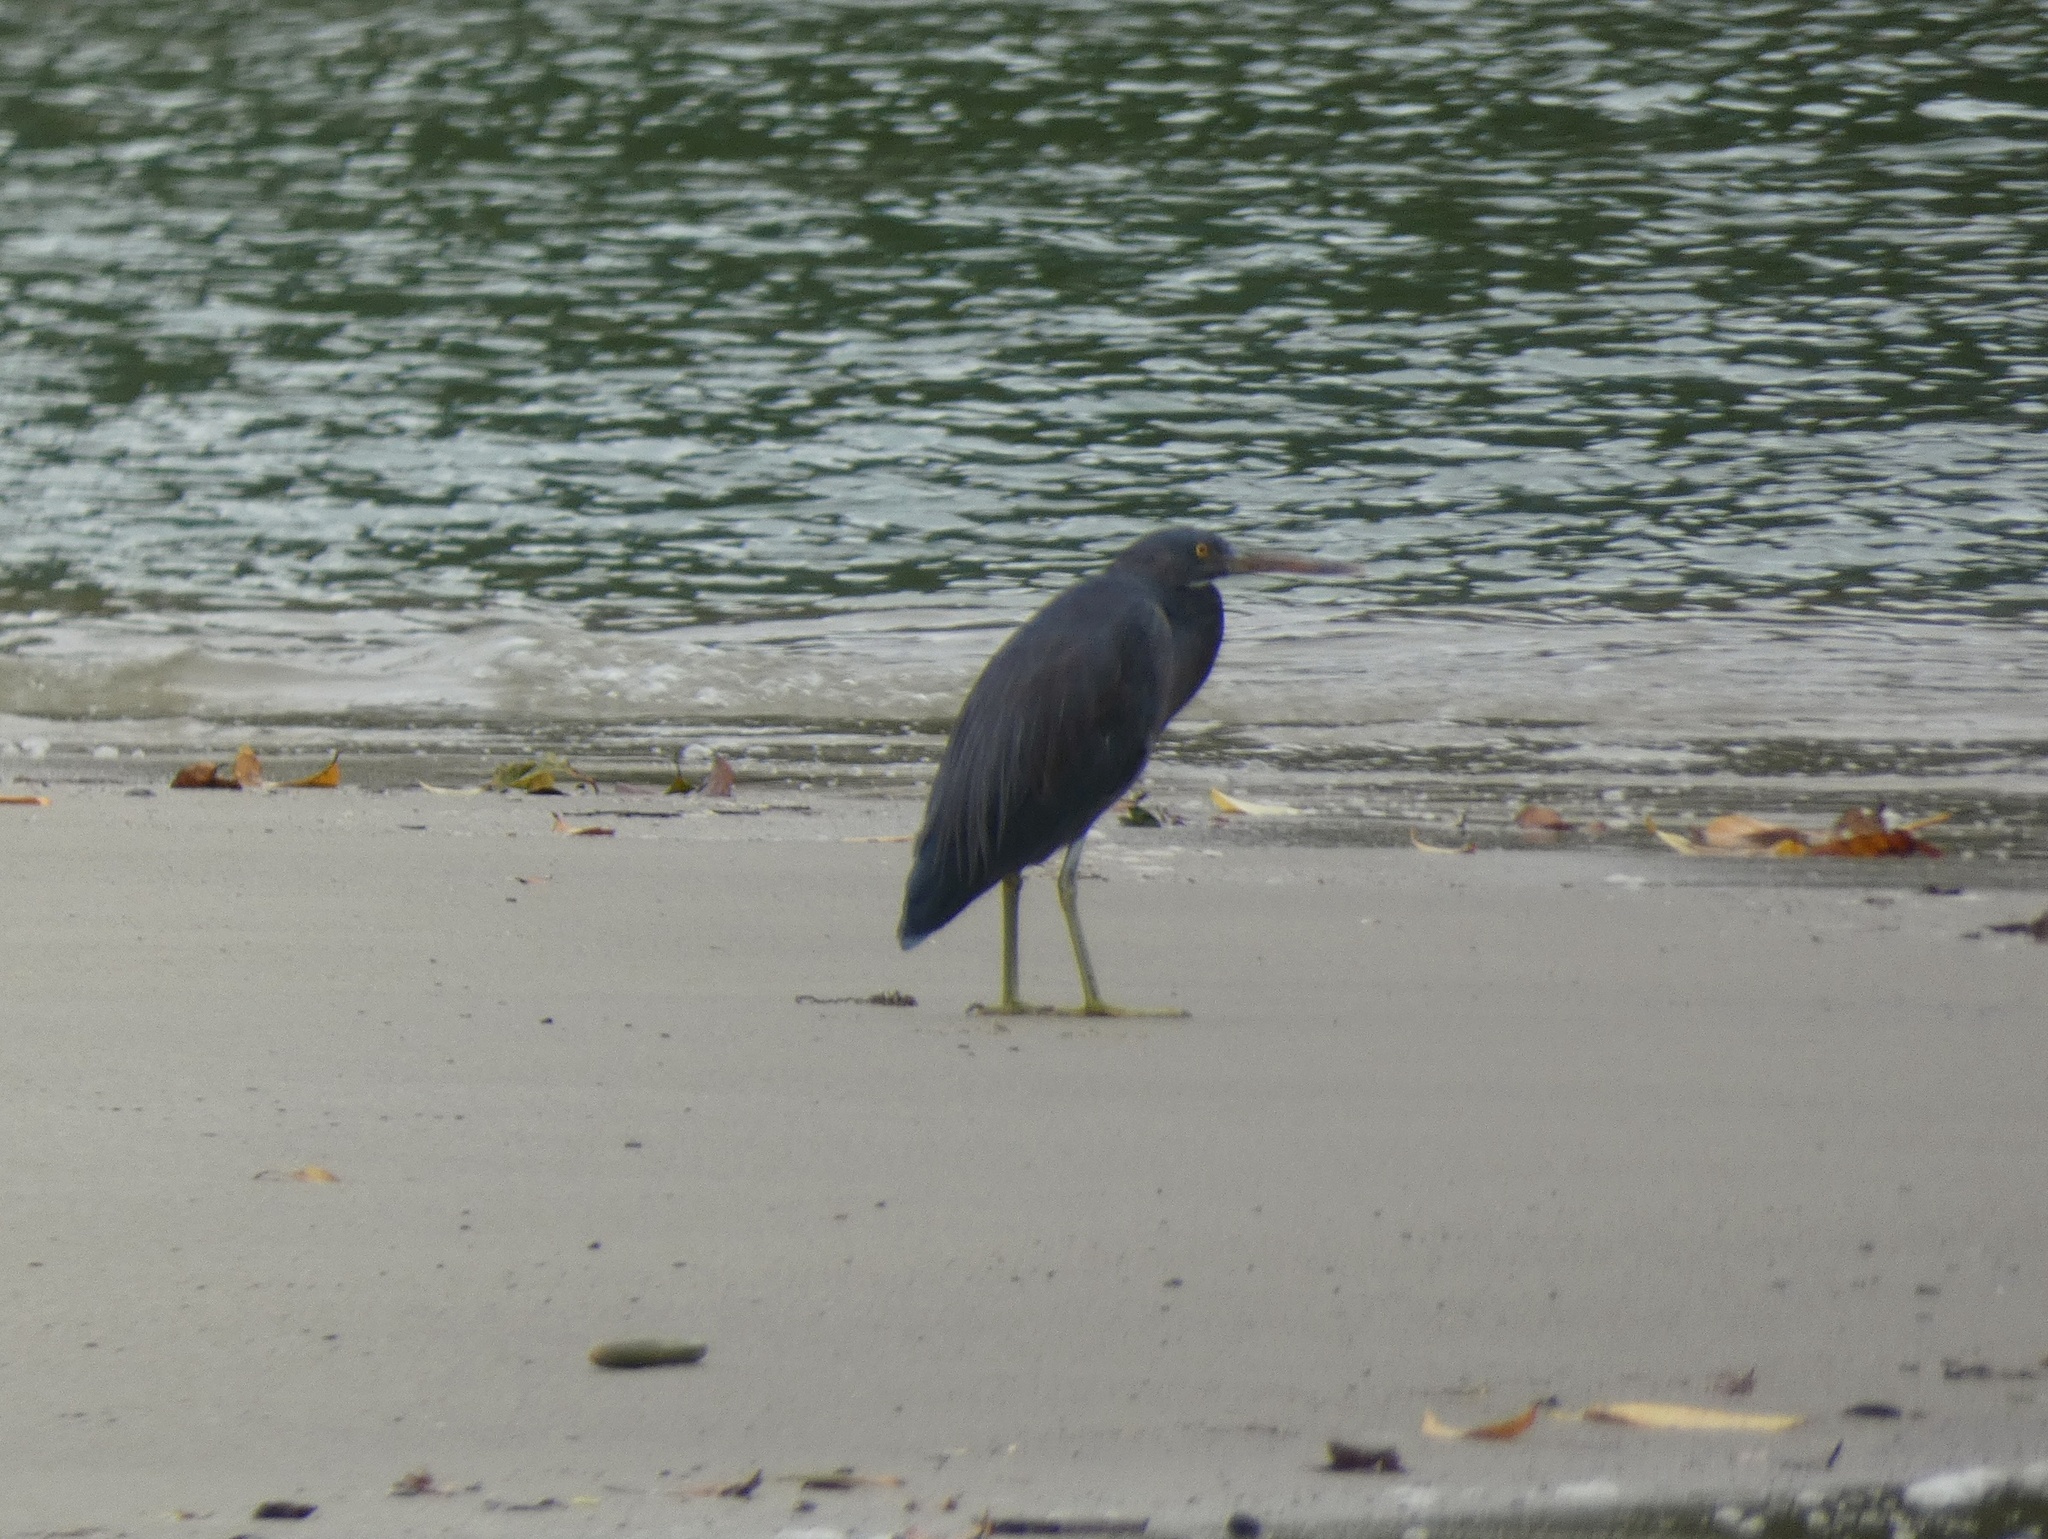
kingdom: Animalia
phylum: Chordata
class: Aves
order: Pelecaniformes
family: Ardeidae
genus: Egretta
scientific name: Egretta sacra
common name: Pacific reef heron
